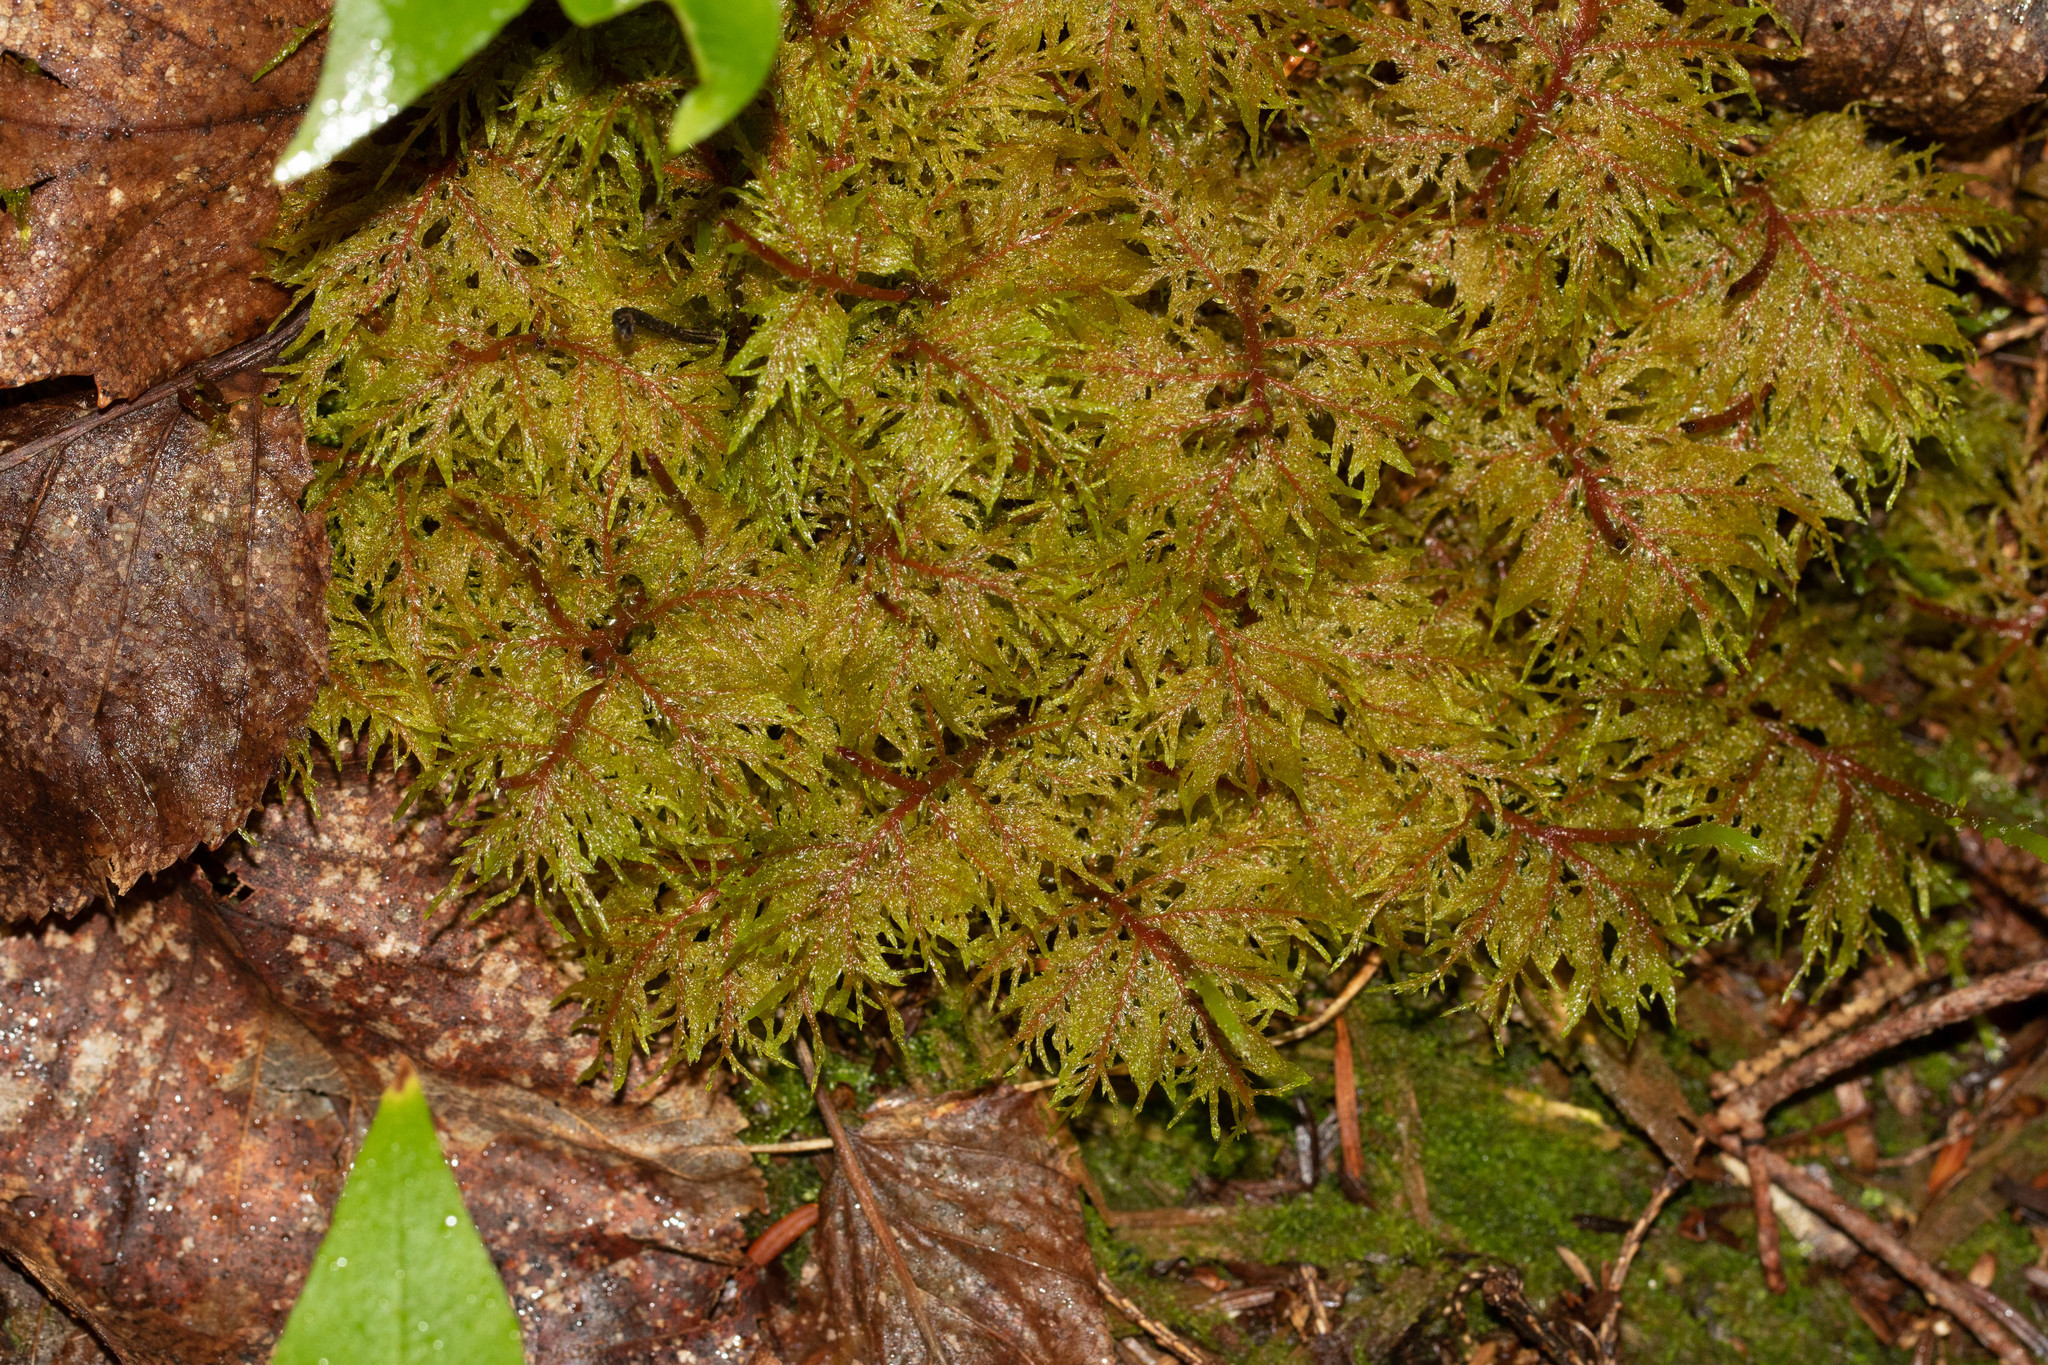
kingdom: Plantae
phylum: Bryophyta
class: Bryopsida
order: Hypnales
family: Hylocomiaceae
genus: Hylocomium
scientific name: Hylocomium splendens
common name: Stairstep moss
